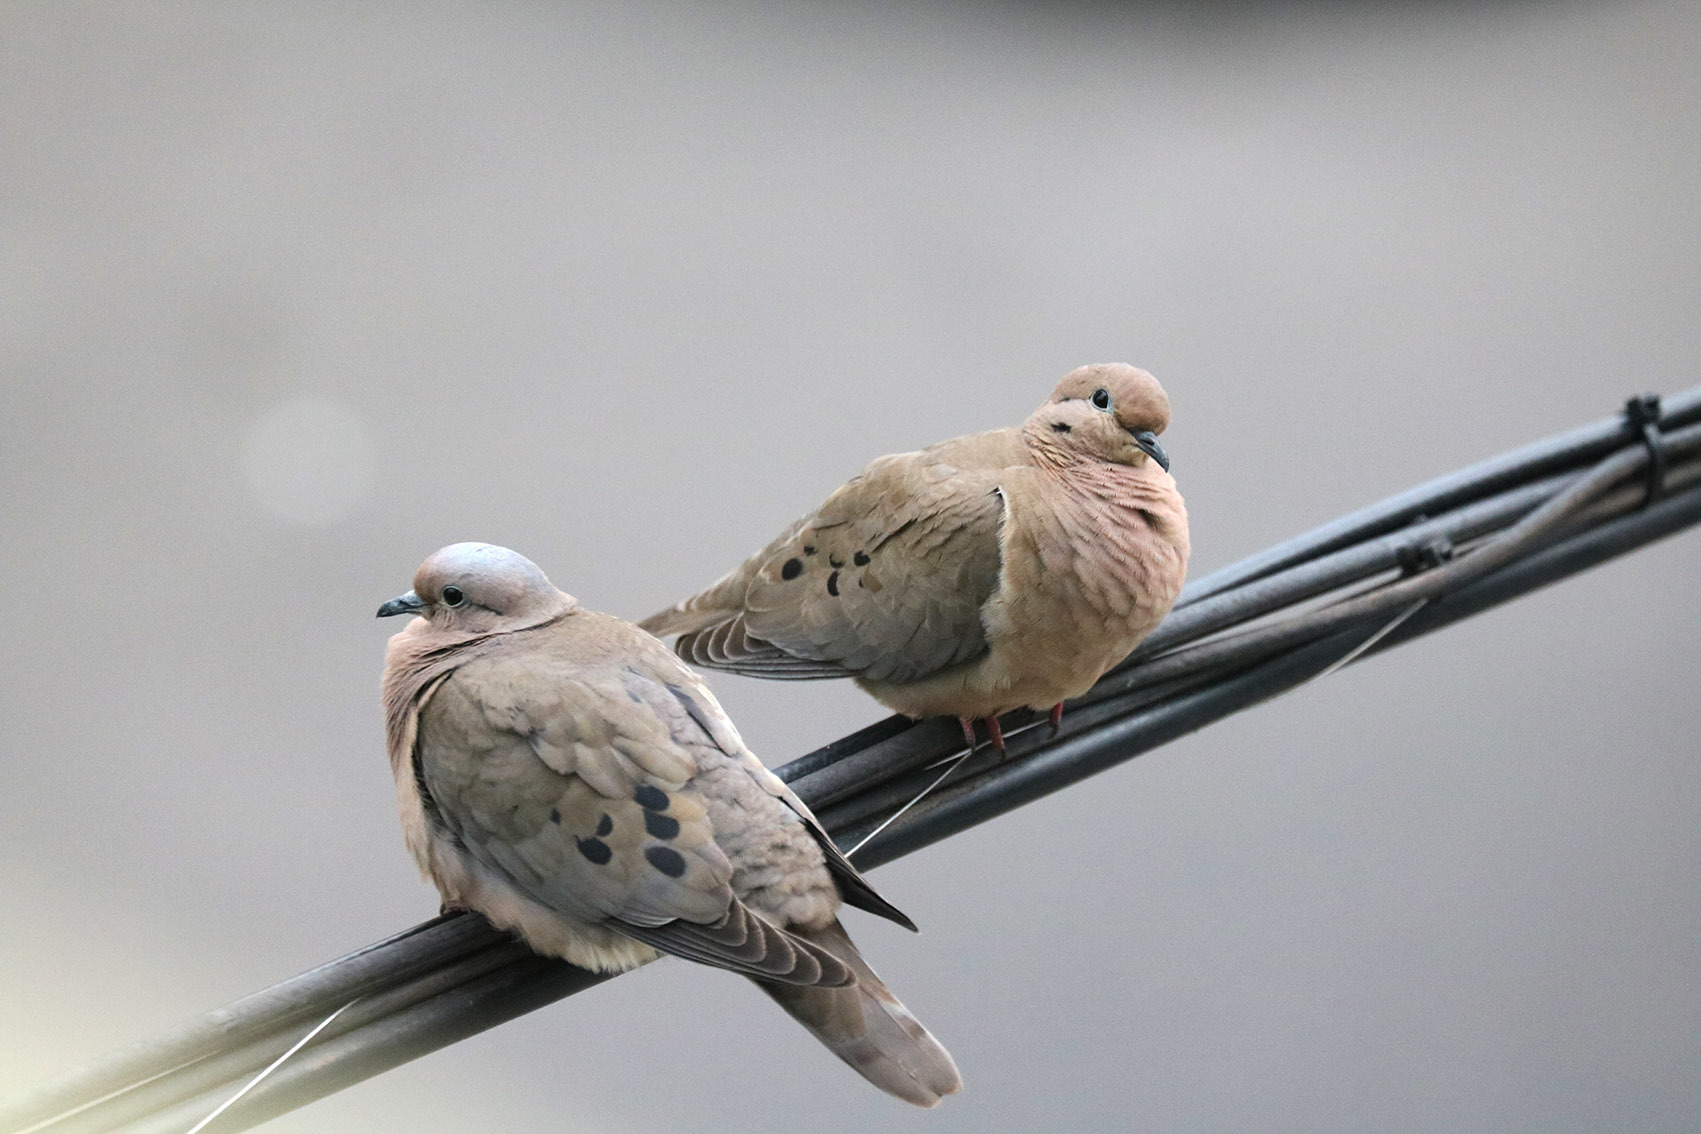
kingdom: Animalia
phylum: Chordata
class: Aves
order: Columbiformes
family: Columbidae
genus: Zenaida
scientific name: Zenaida auriculata
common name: Eared dove
